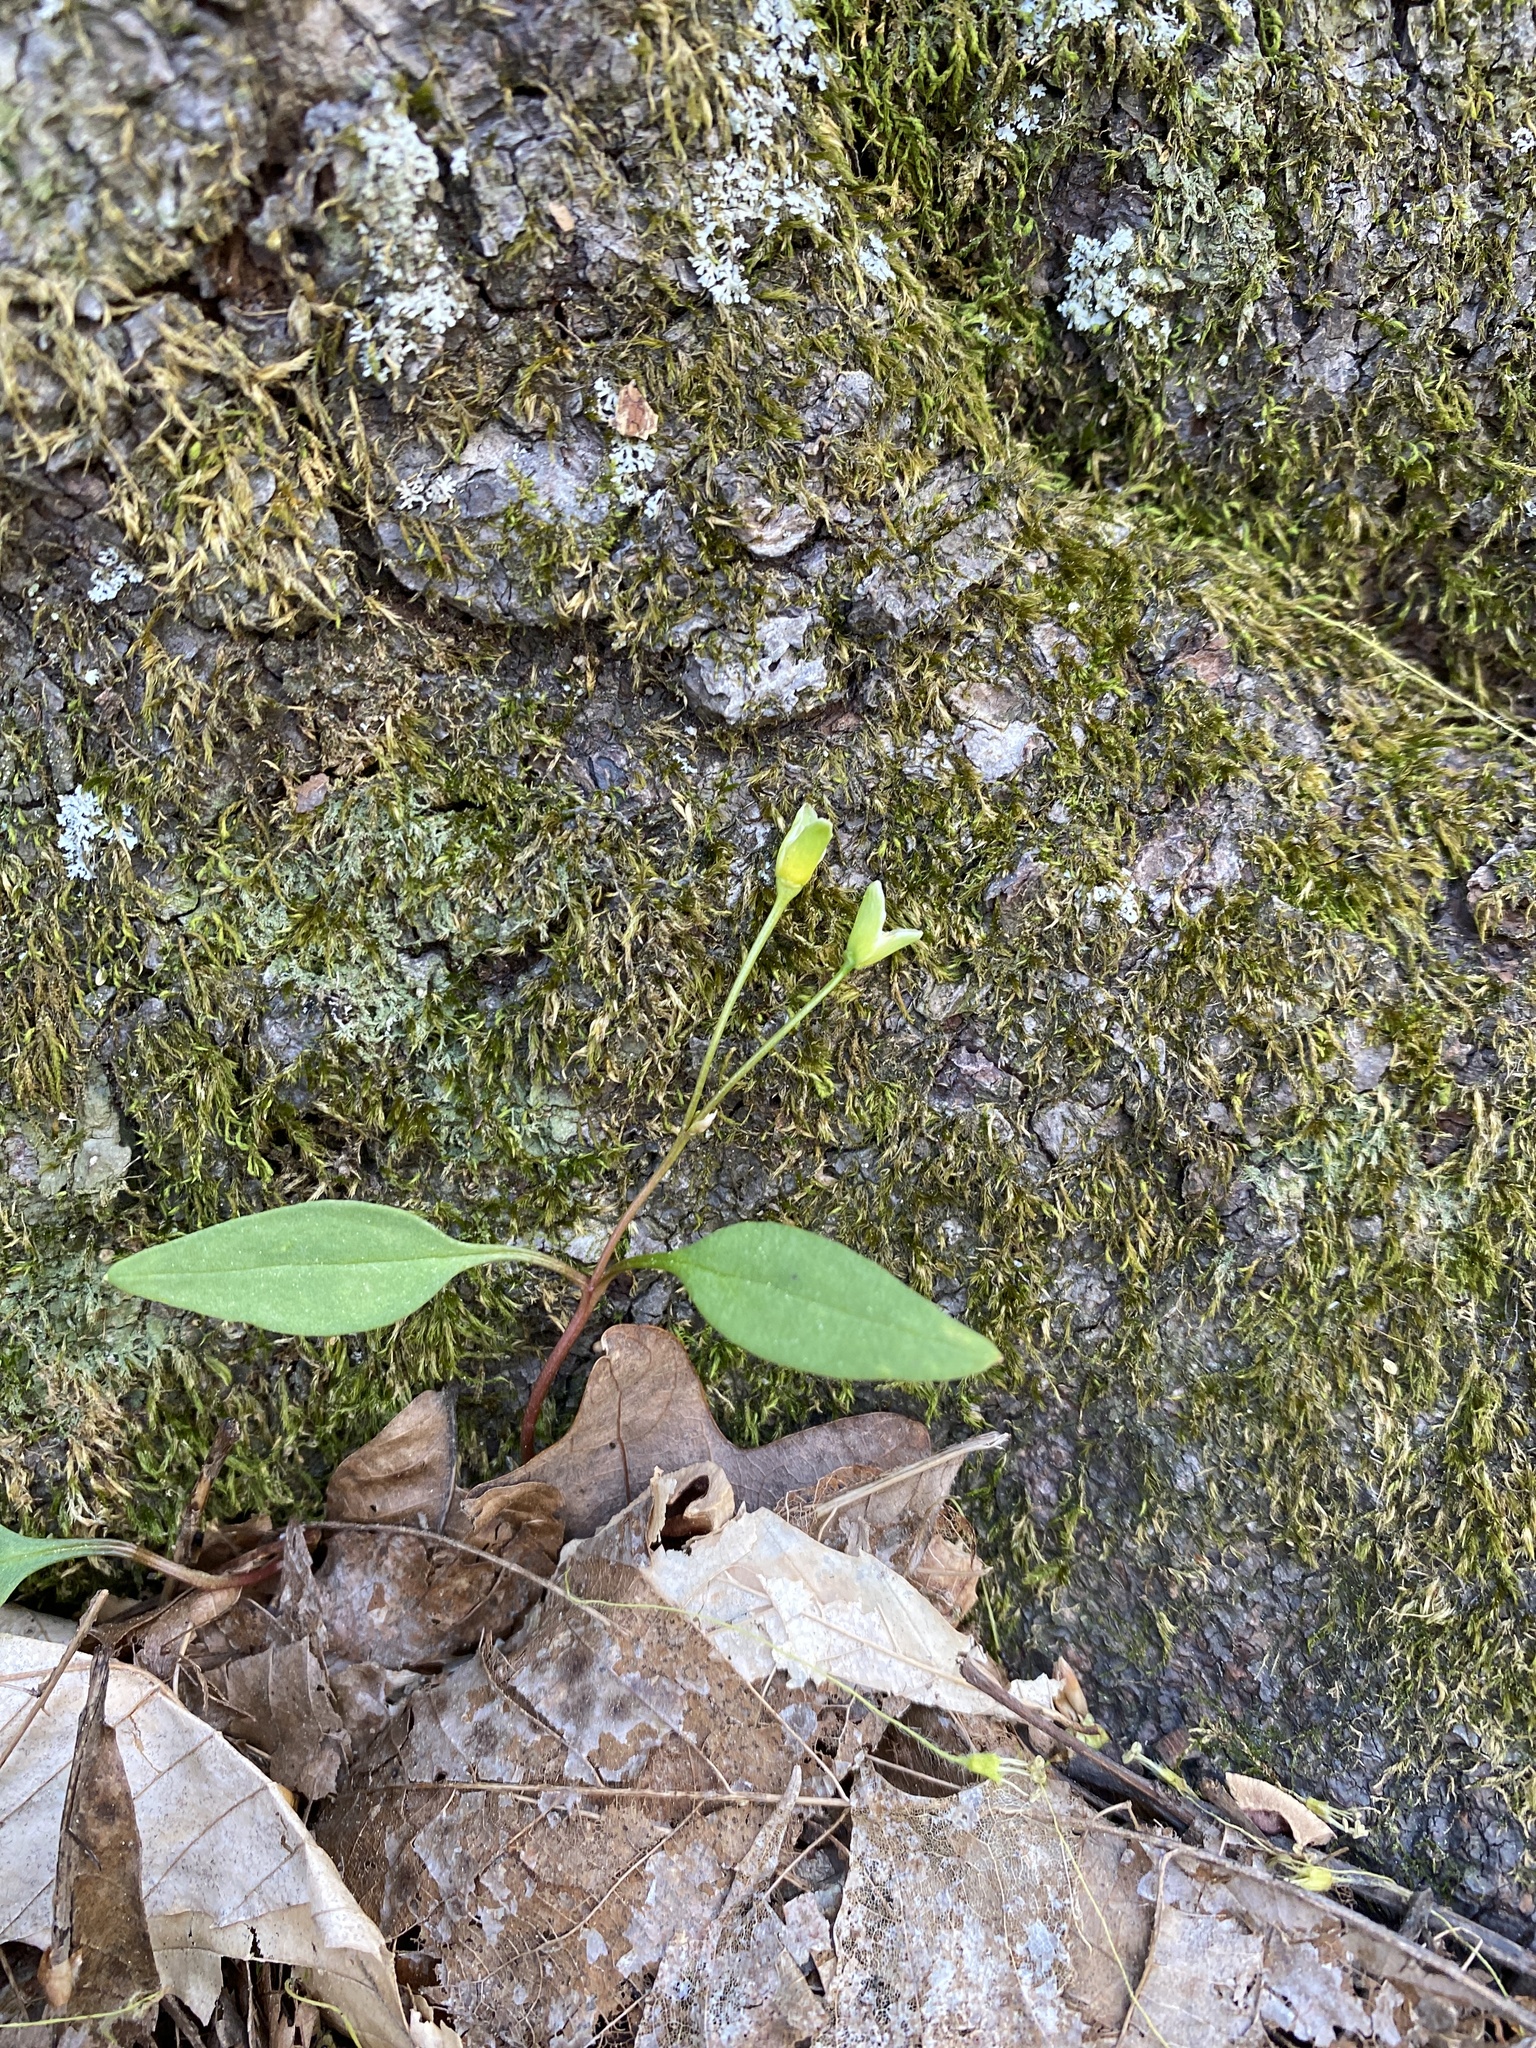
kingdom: Plantae
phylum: Tracheophyta
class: Magnoliopsida
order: Caryophyllales
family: Montiaceae
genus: Claytonia
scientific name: Claytonia caroliniana
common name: Carolina spring beauty
